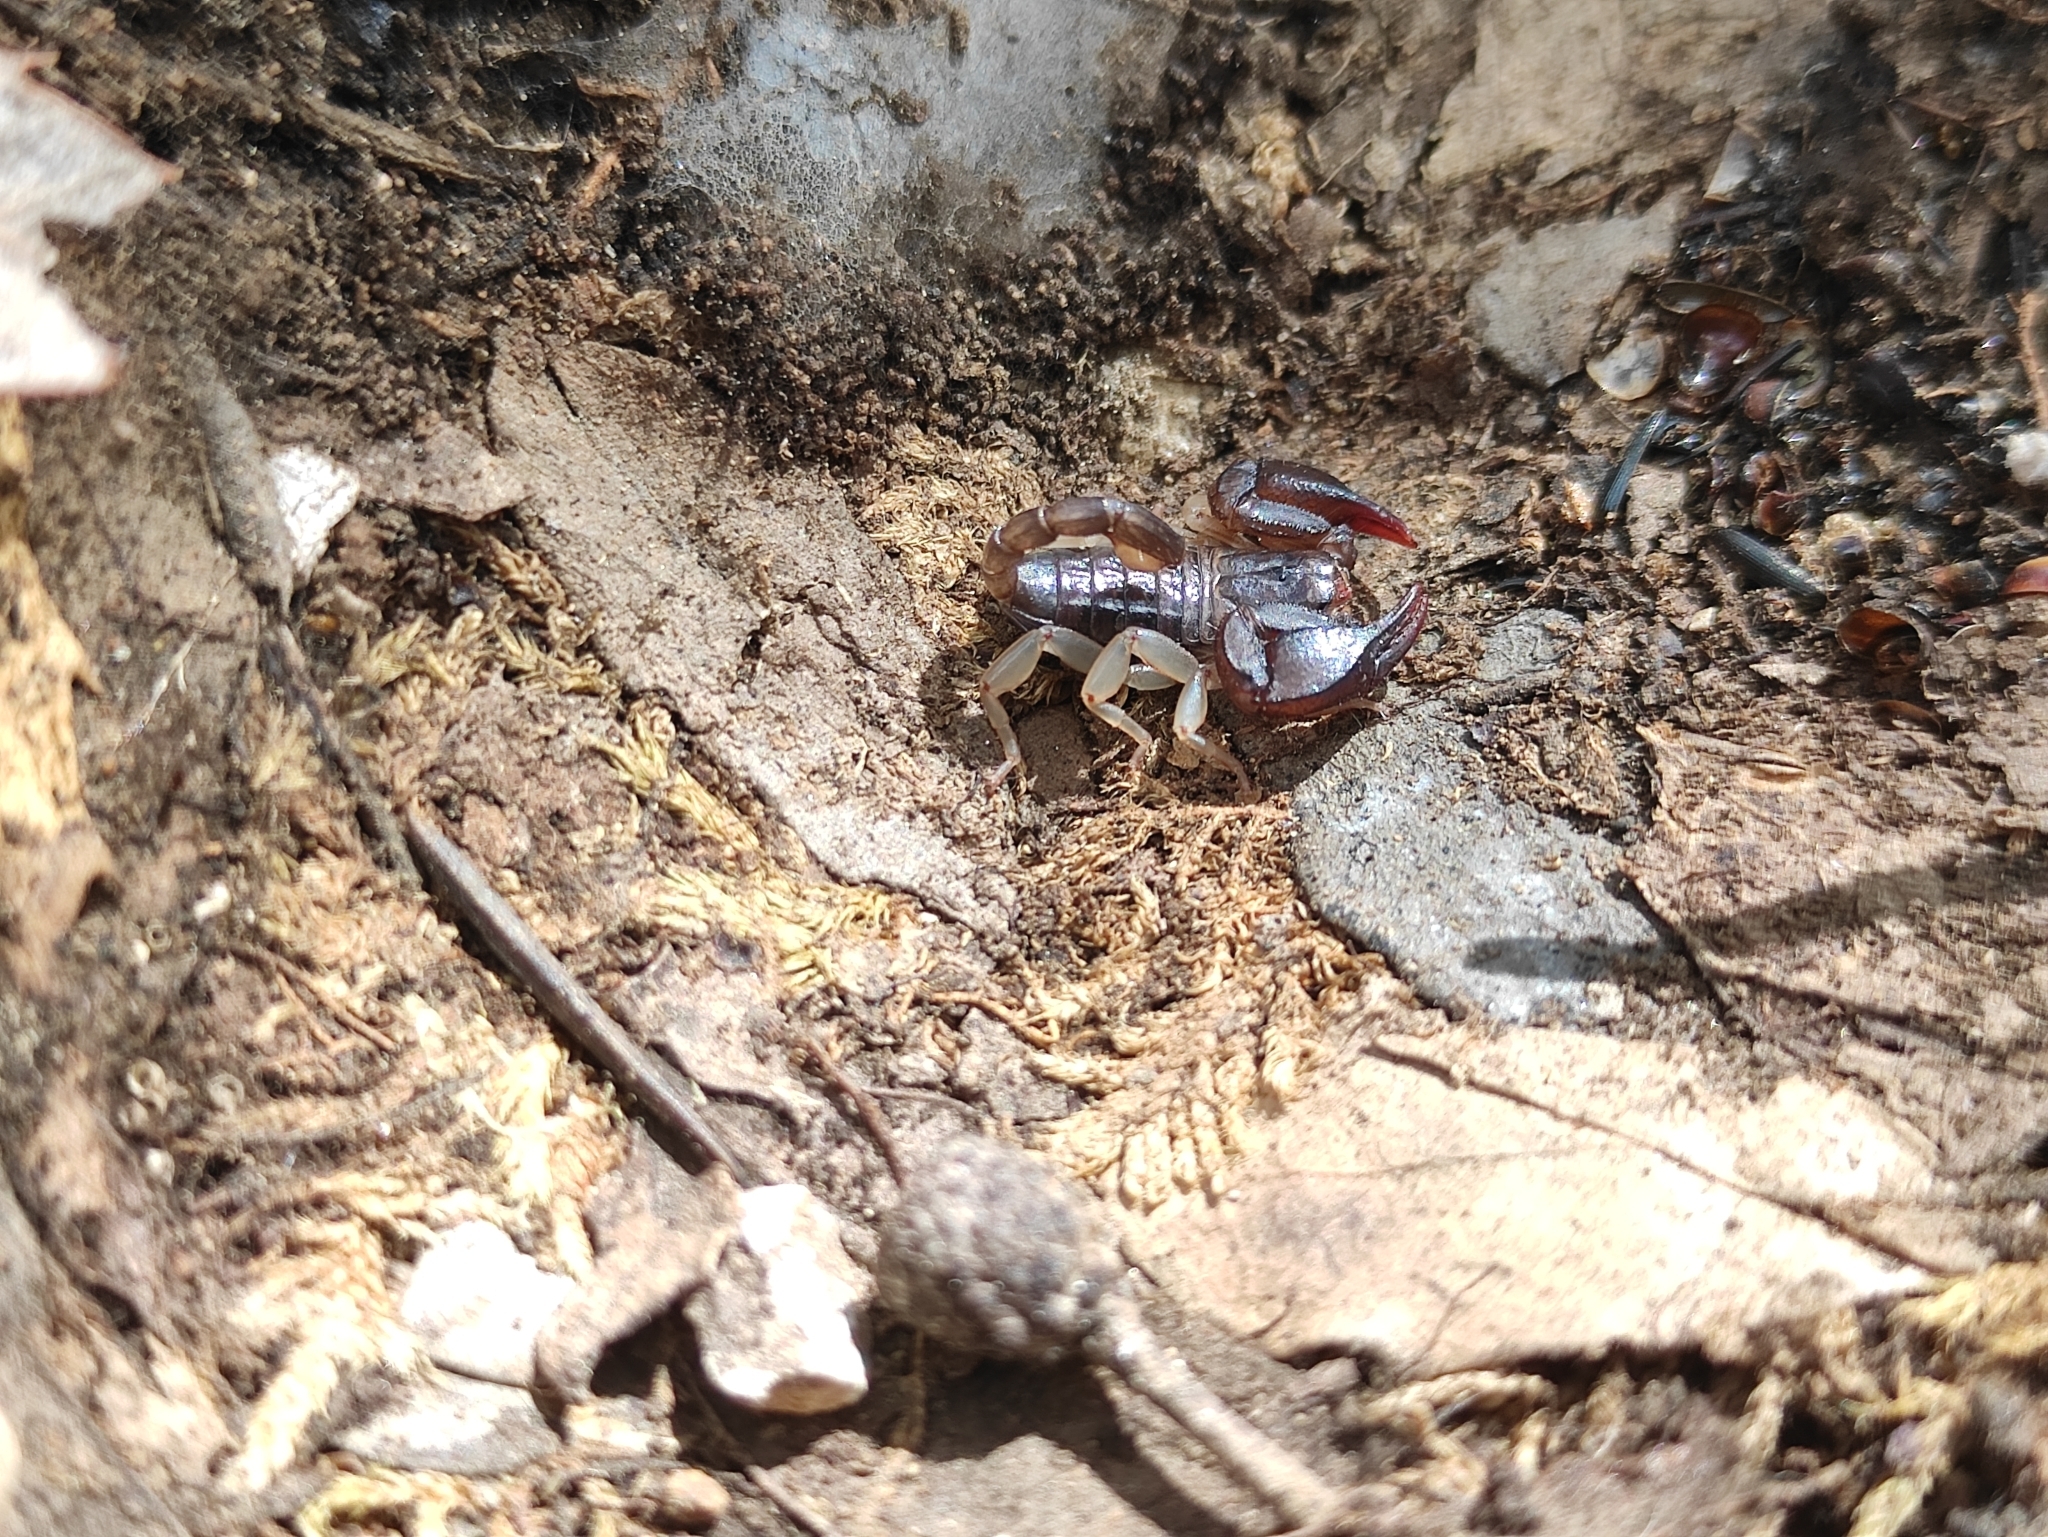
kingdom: Animalia
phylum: Arthropoda
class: Arachnida
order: Scorpiones
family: Euscorpiidae
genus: Euscorpius
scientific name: Euscorpius
